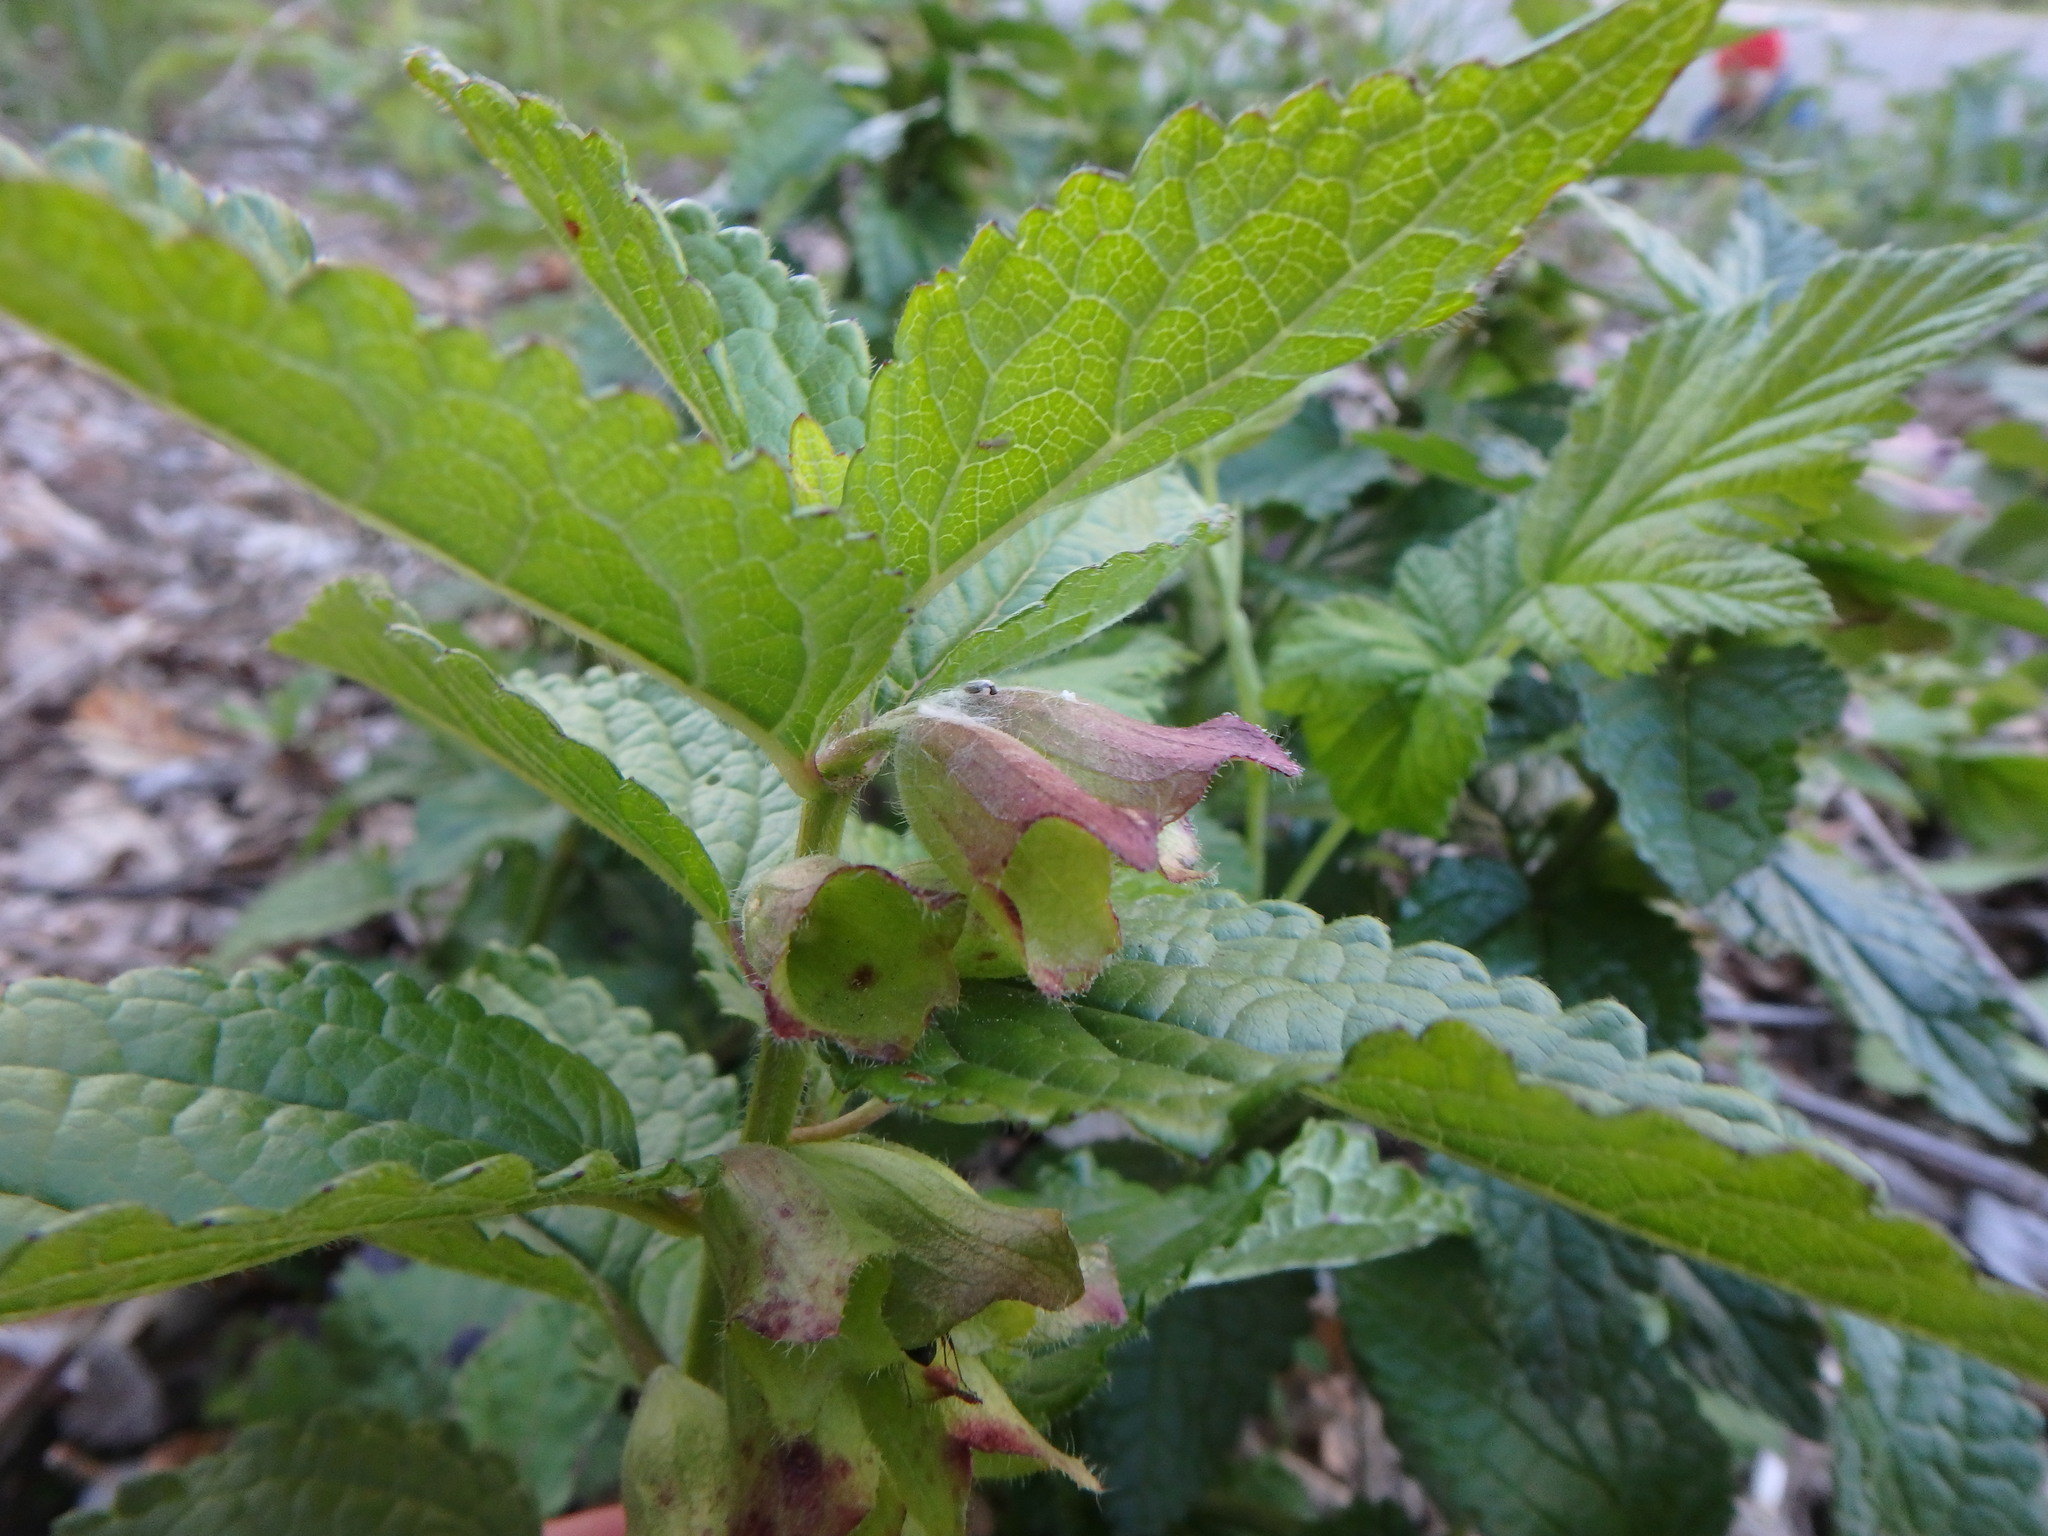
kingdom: Plantae
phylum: Tracheophyta
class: Magnoliopsida
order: Lamiales
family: Lamiaceae
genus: Melittis
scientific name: Melittis melissophyllum
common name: Bastard balm
